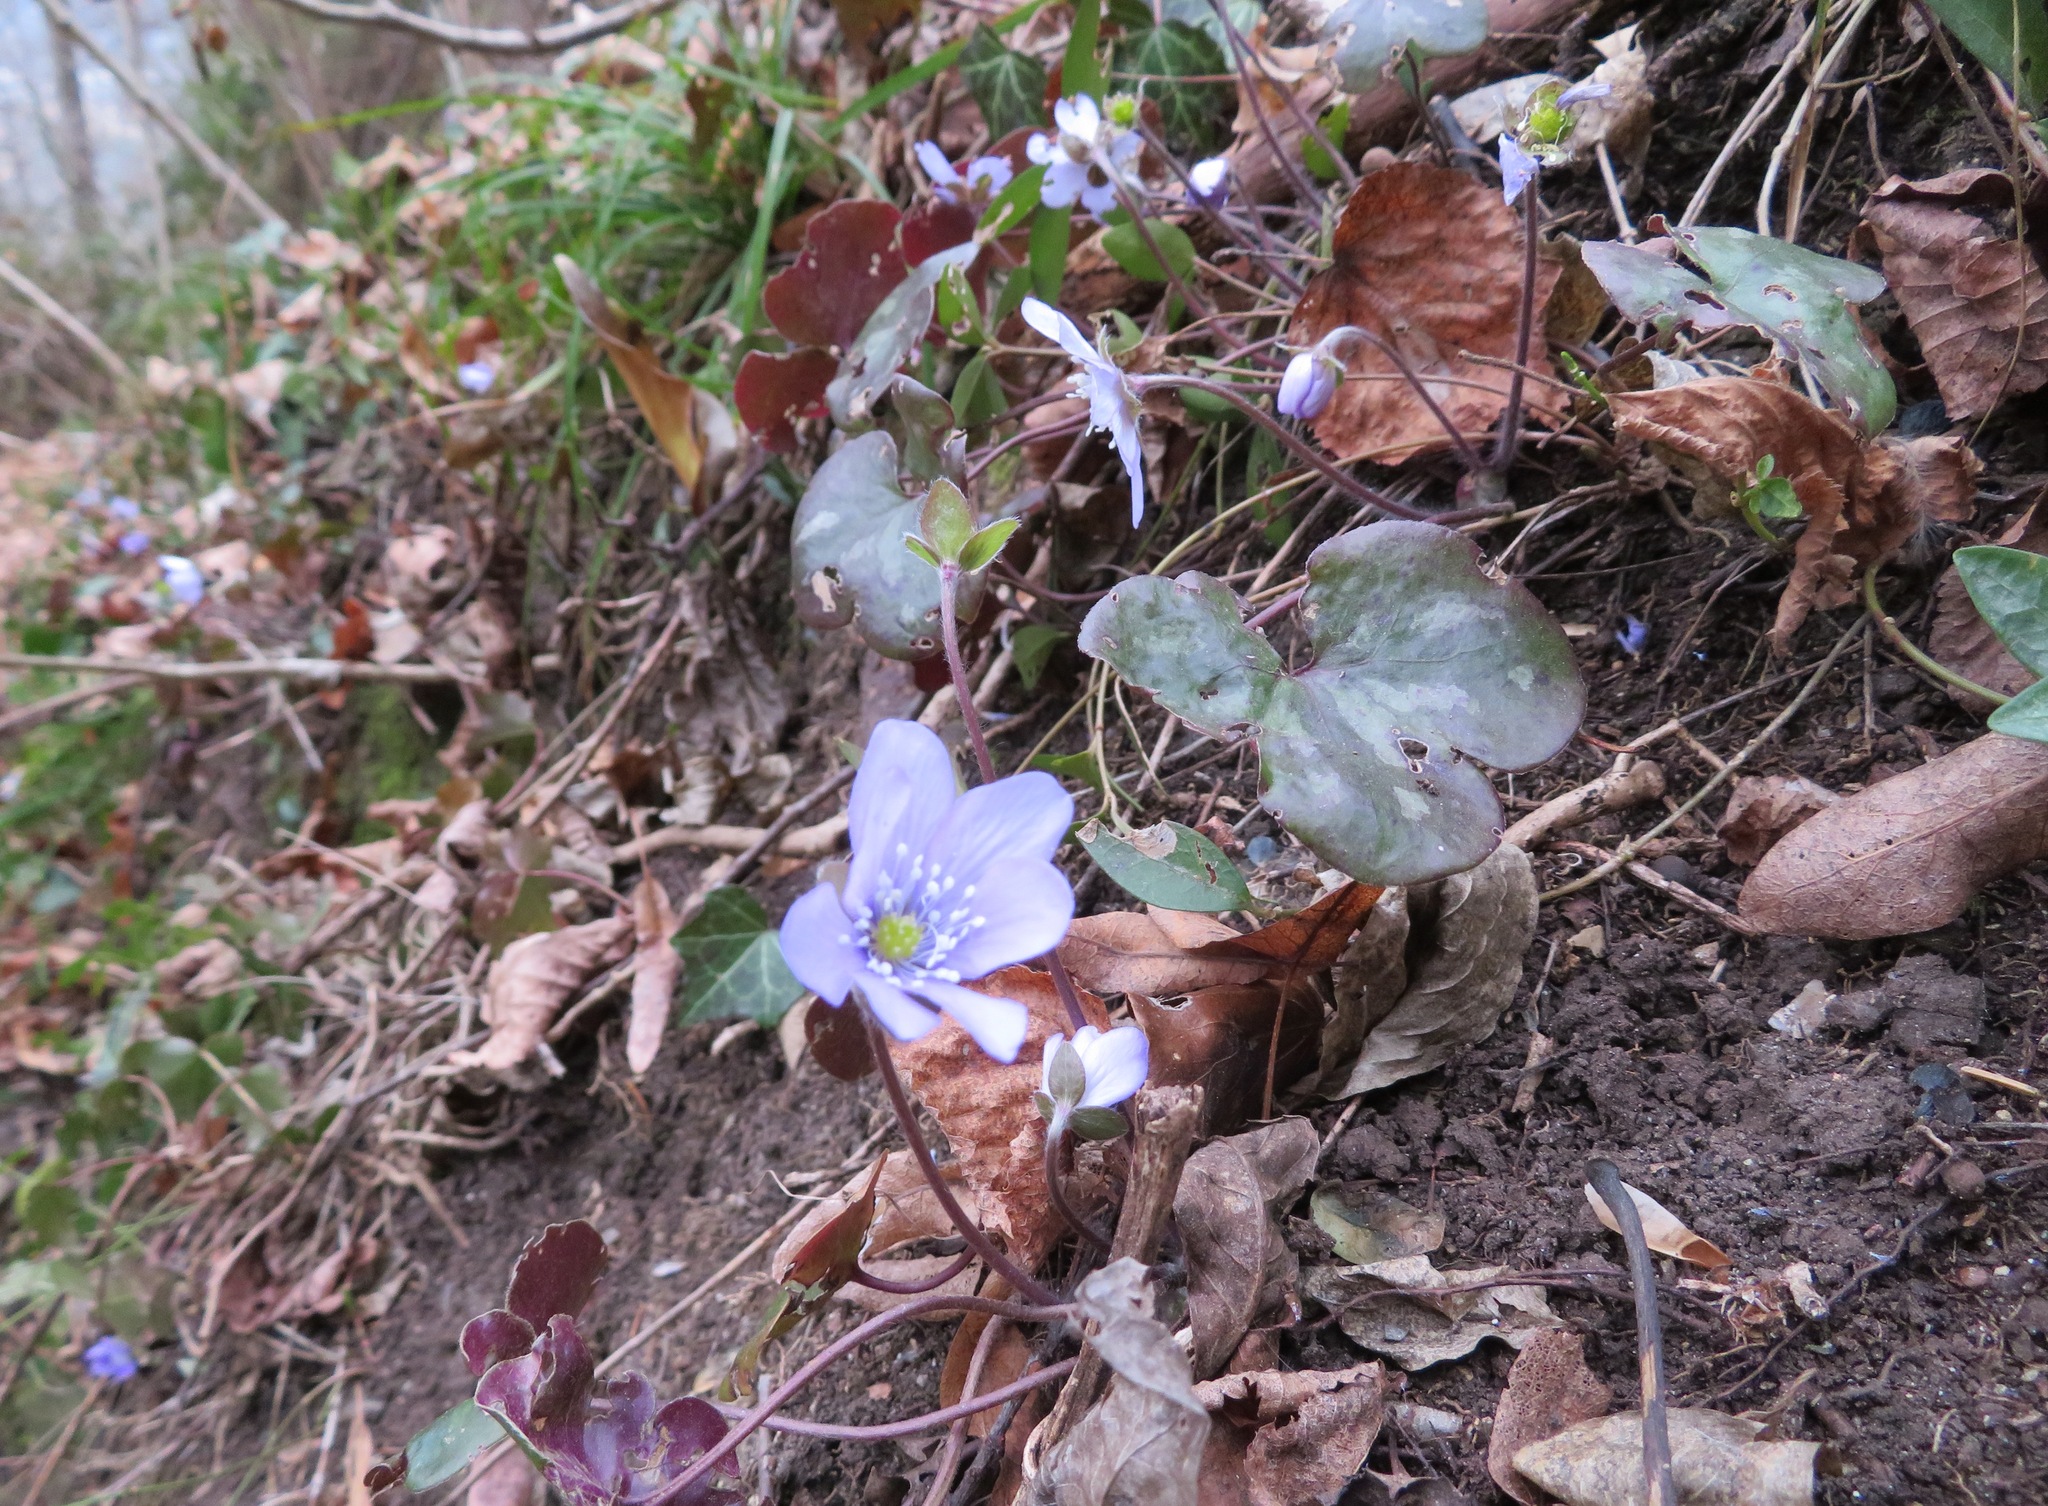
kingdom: Plantae
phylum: Tracheophyta
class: Magnoliopsida
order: Ranunculales
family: Ranunculaceae
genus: Hepatica
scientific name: Hepatica nobilis
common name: Liverleaf
